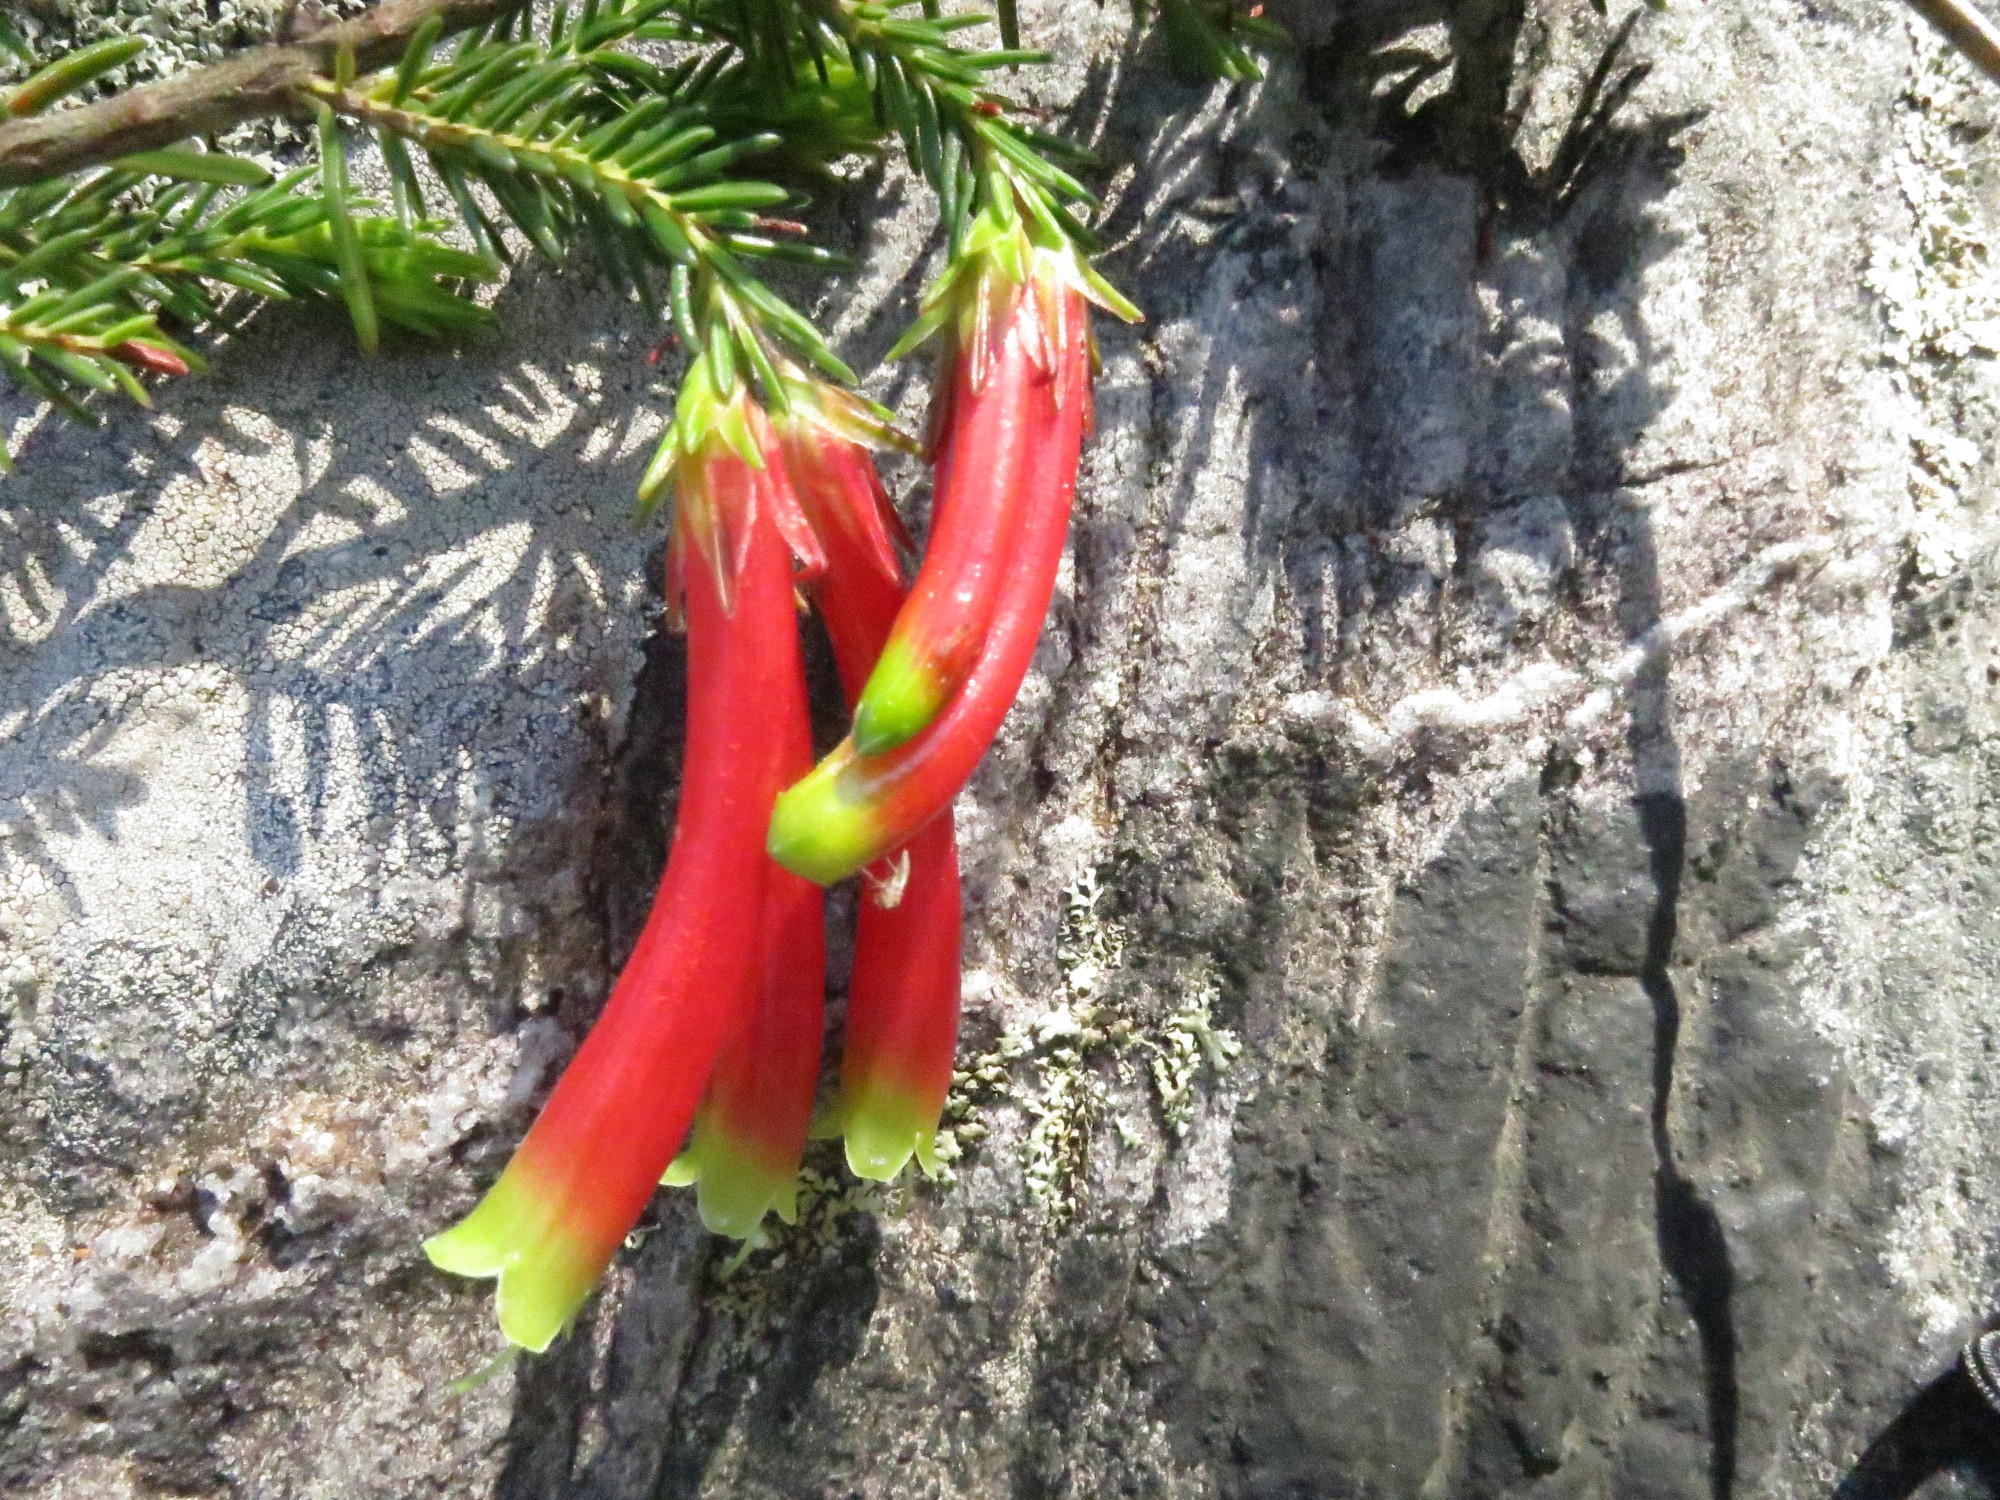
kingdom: Plantae
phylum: Tracheophyta
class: Magnoliopsida
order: Ericales
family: Ericaceae
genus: Erica
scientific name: Erica discolor
